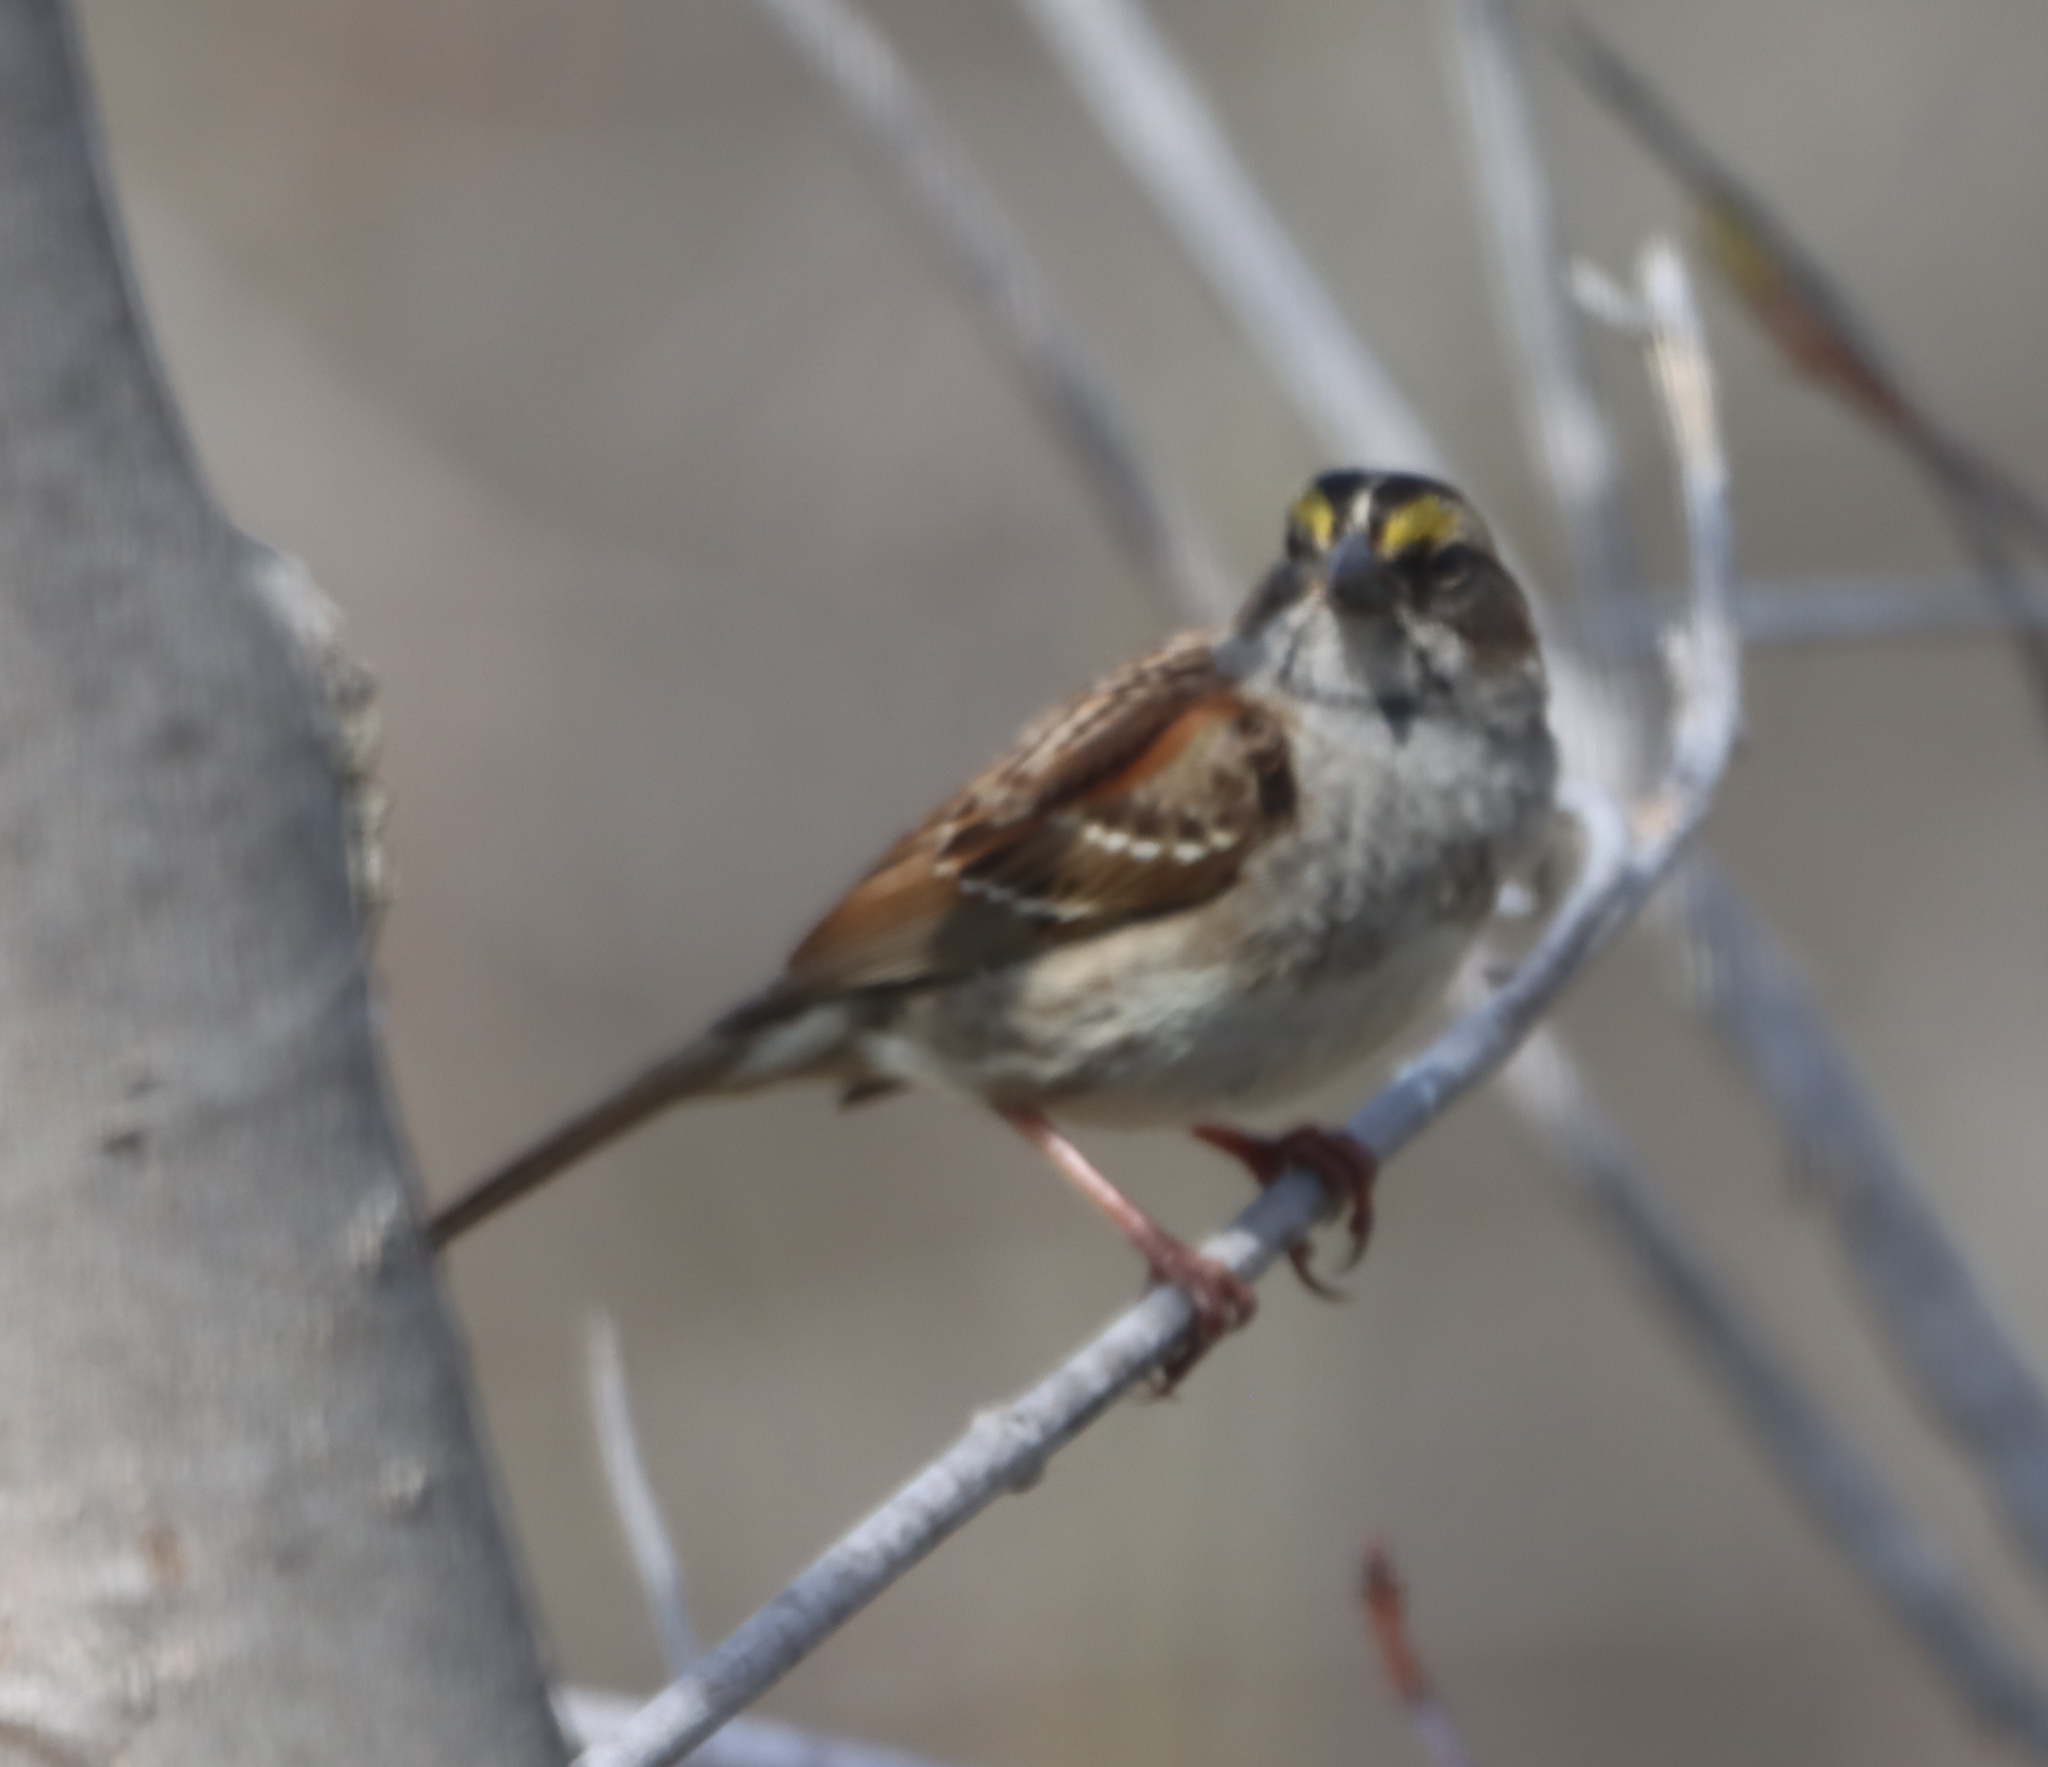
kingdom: Animalia
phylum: Chordata
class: Aves
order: Passeriformes
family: Passerellidae
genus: Zonotrichia
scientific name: Zonotrichia albicollis
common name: White-throated sparrow
